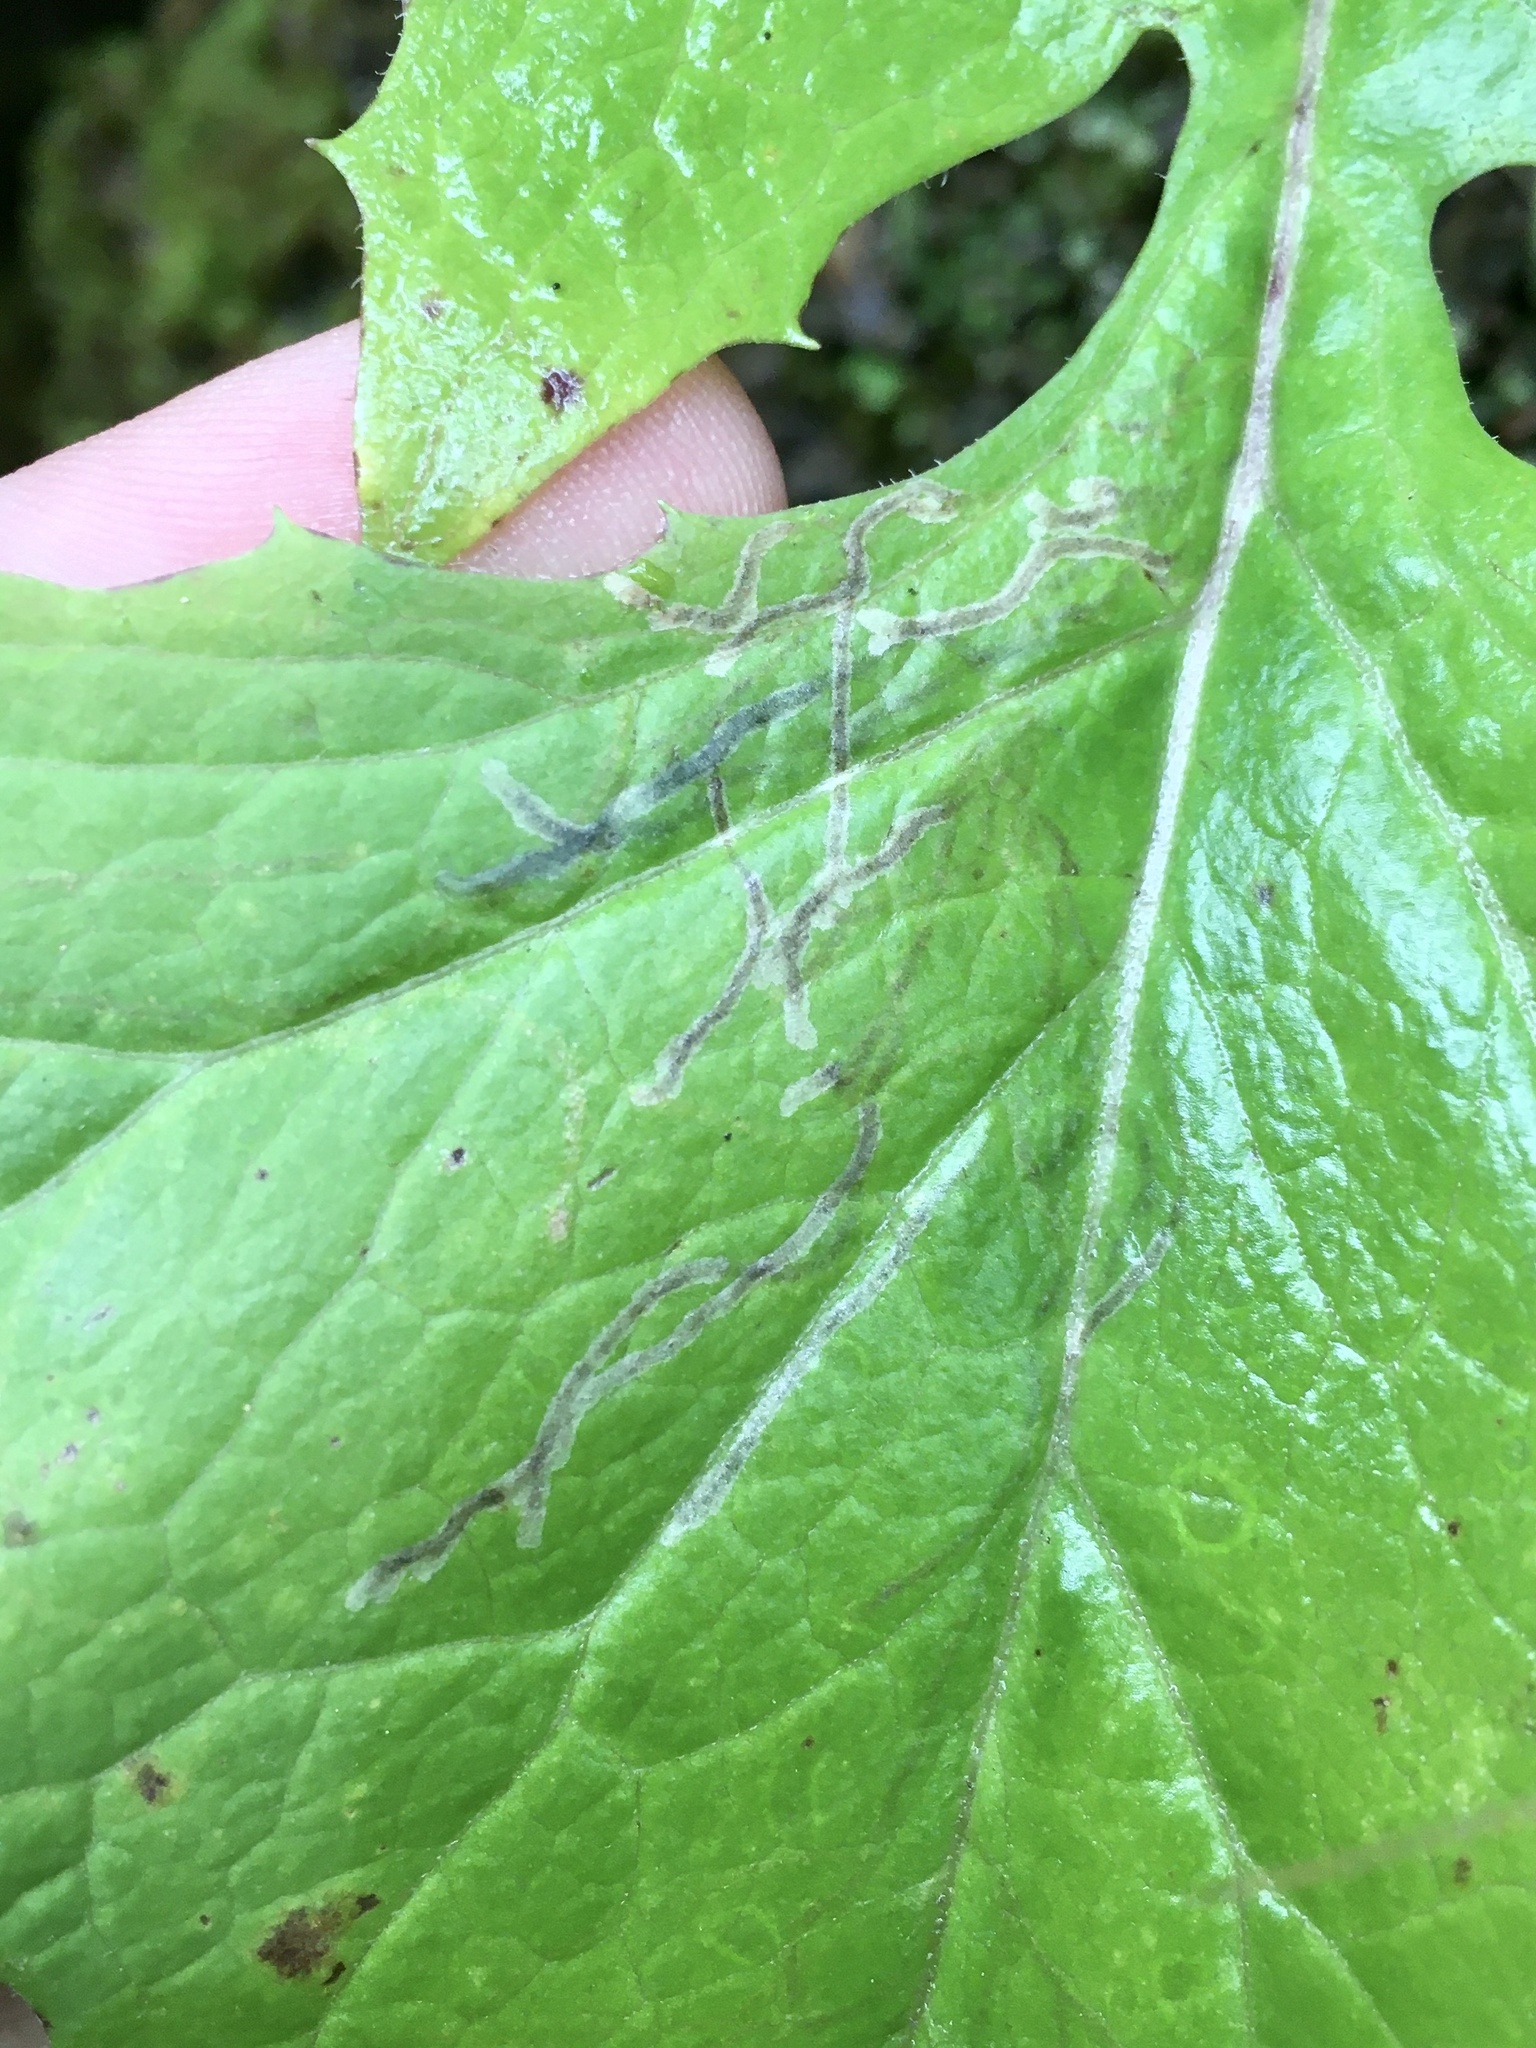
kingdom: Animalia
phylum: Arthropoda
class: Insecta
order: Diptera
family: Agromyzidae
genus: Ophiomyia
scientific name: Ophiomyia congregata
